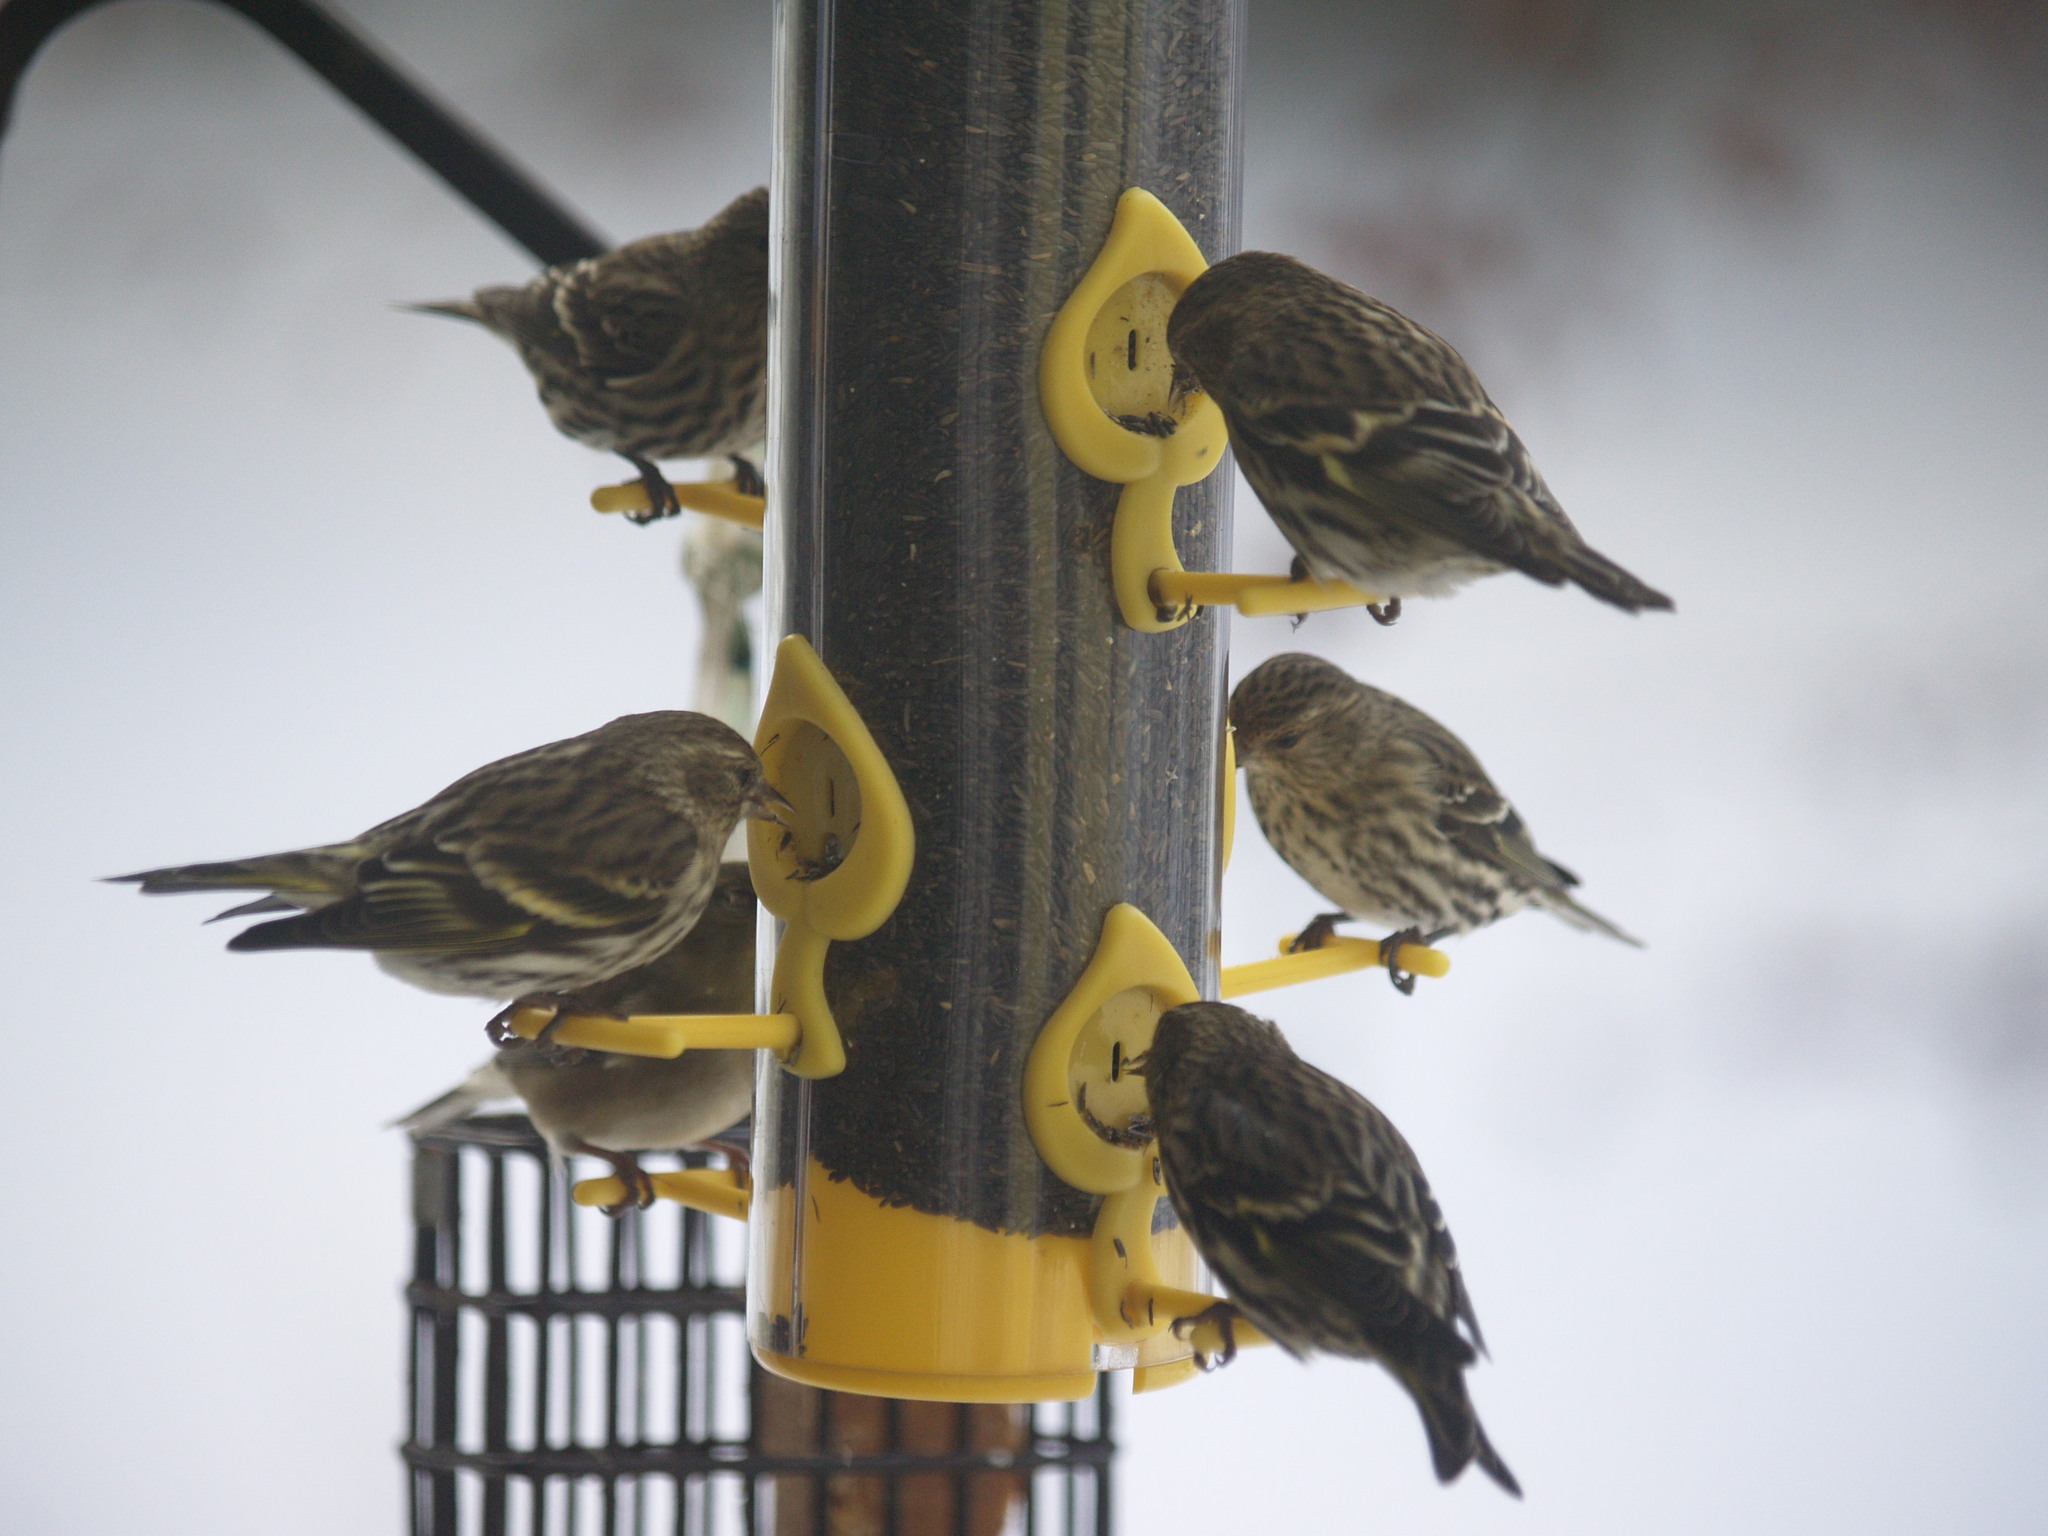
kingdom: Animalia
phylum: Chordata
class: Aves
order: Passeriformes
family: Fringillidae
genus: Spinus
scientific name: Spinus pinus
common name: Pine siskin
